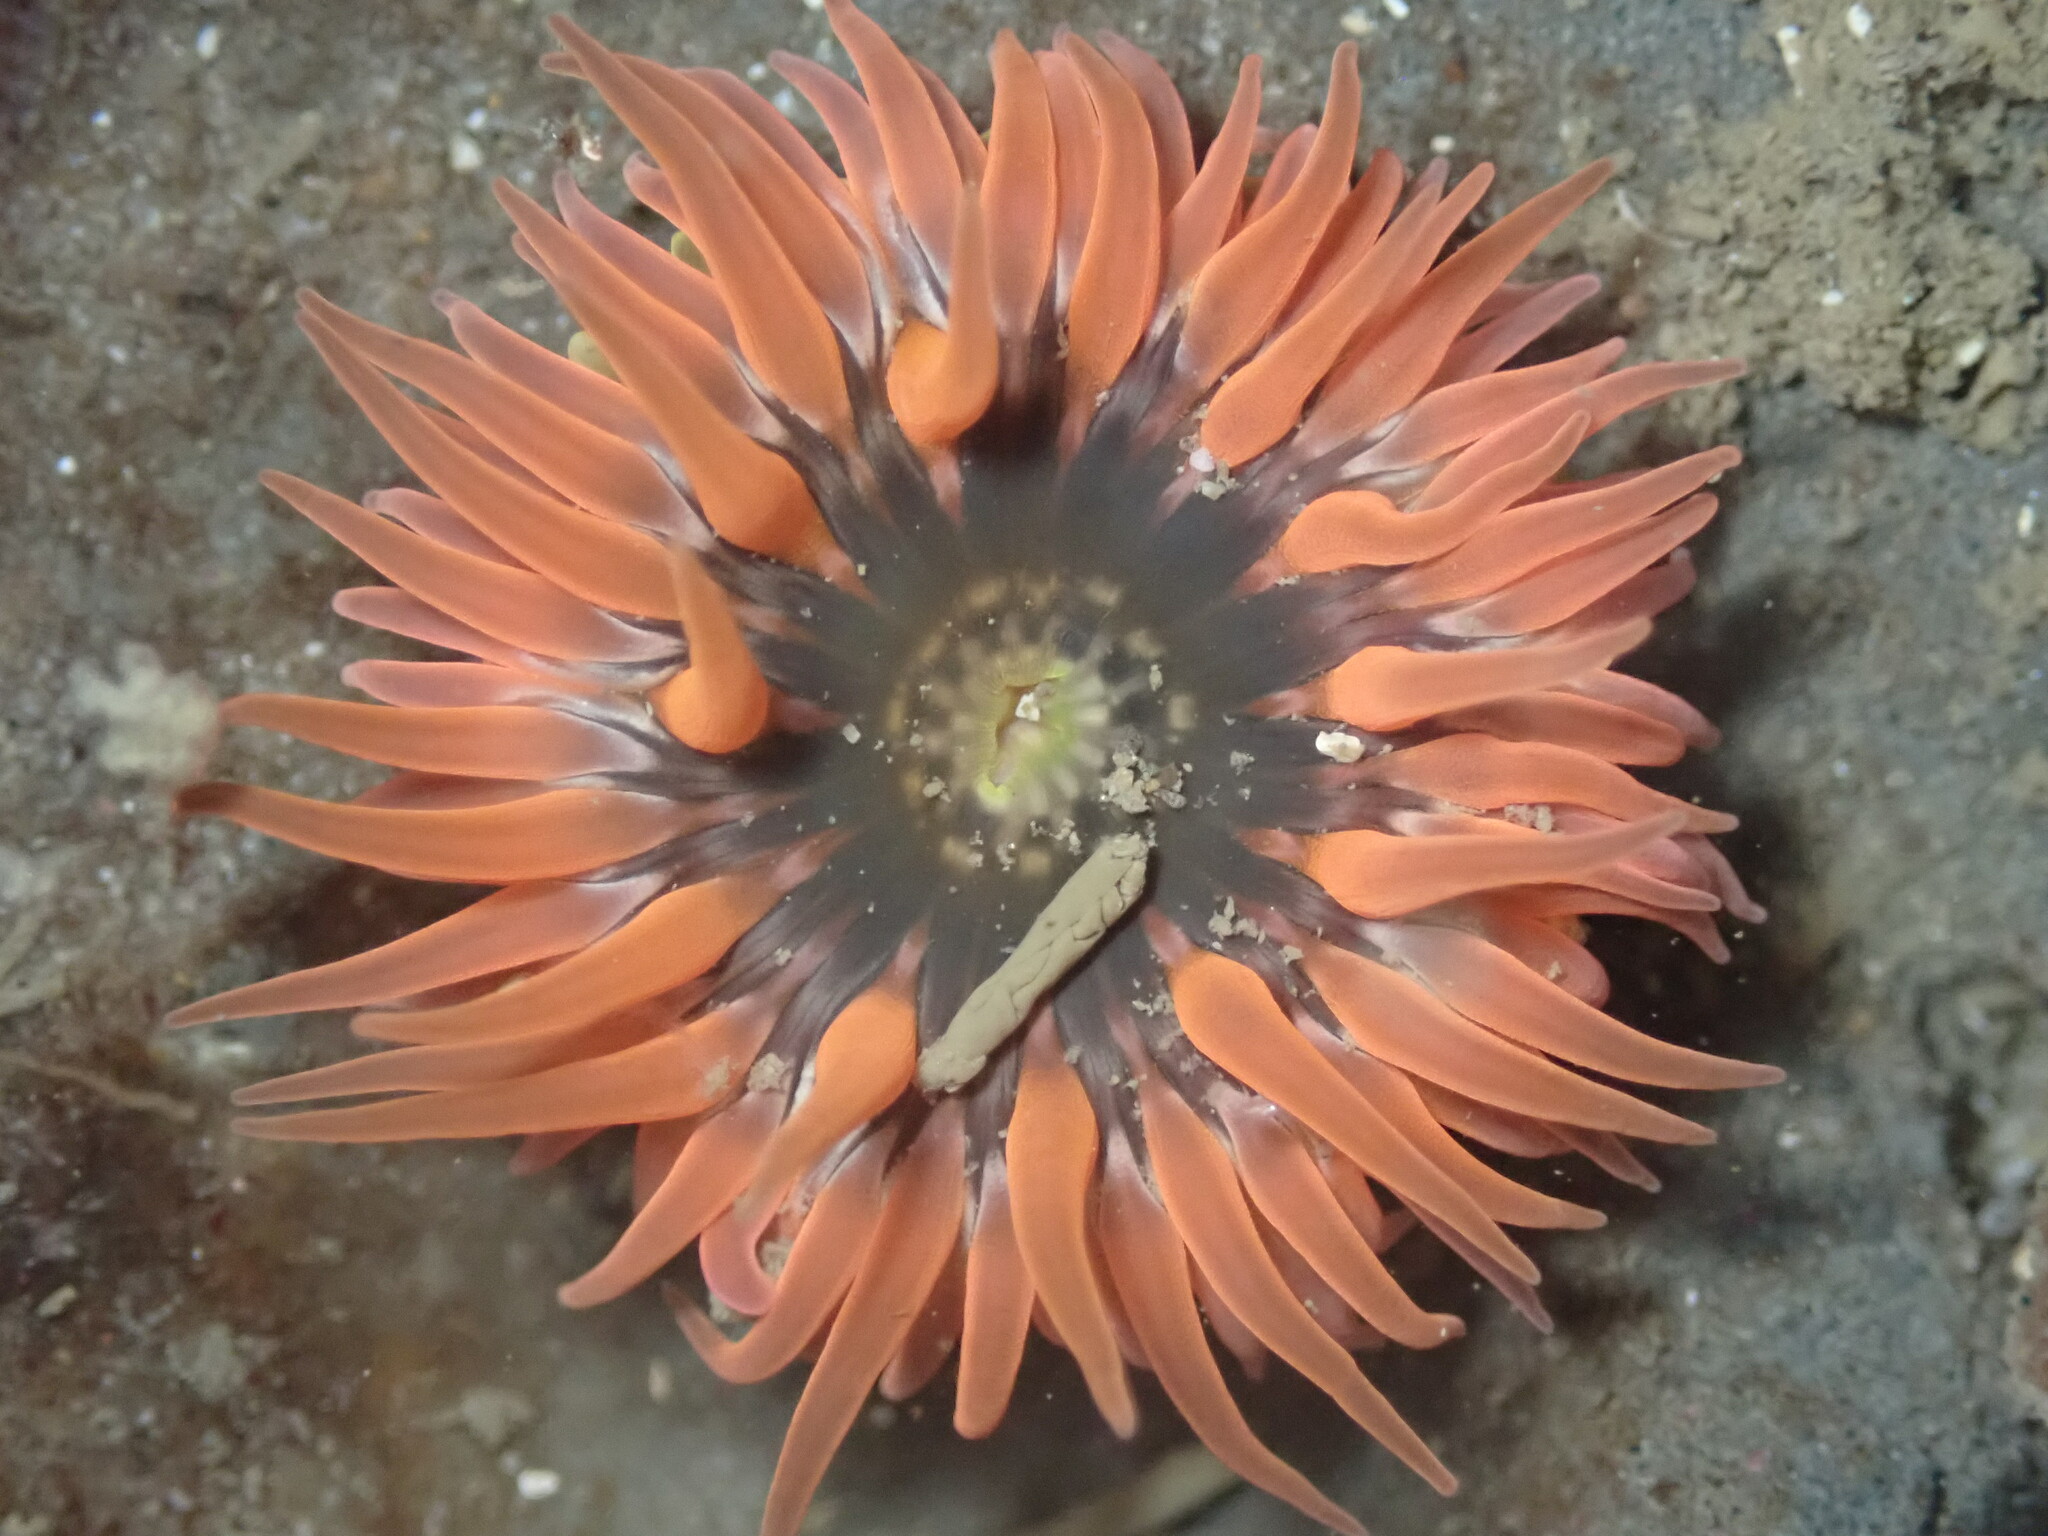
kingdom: Animalia
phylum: Cnidaria
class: Anthozoa
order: Actiniaria
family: Actiniidae
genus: Anthopleura
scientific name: Anthopleura artemisia
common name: Buried sea anemone
